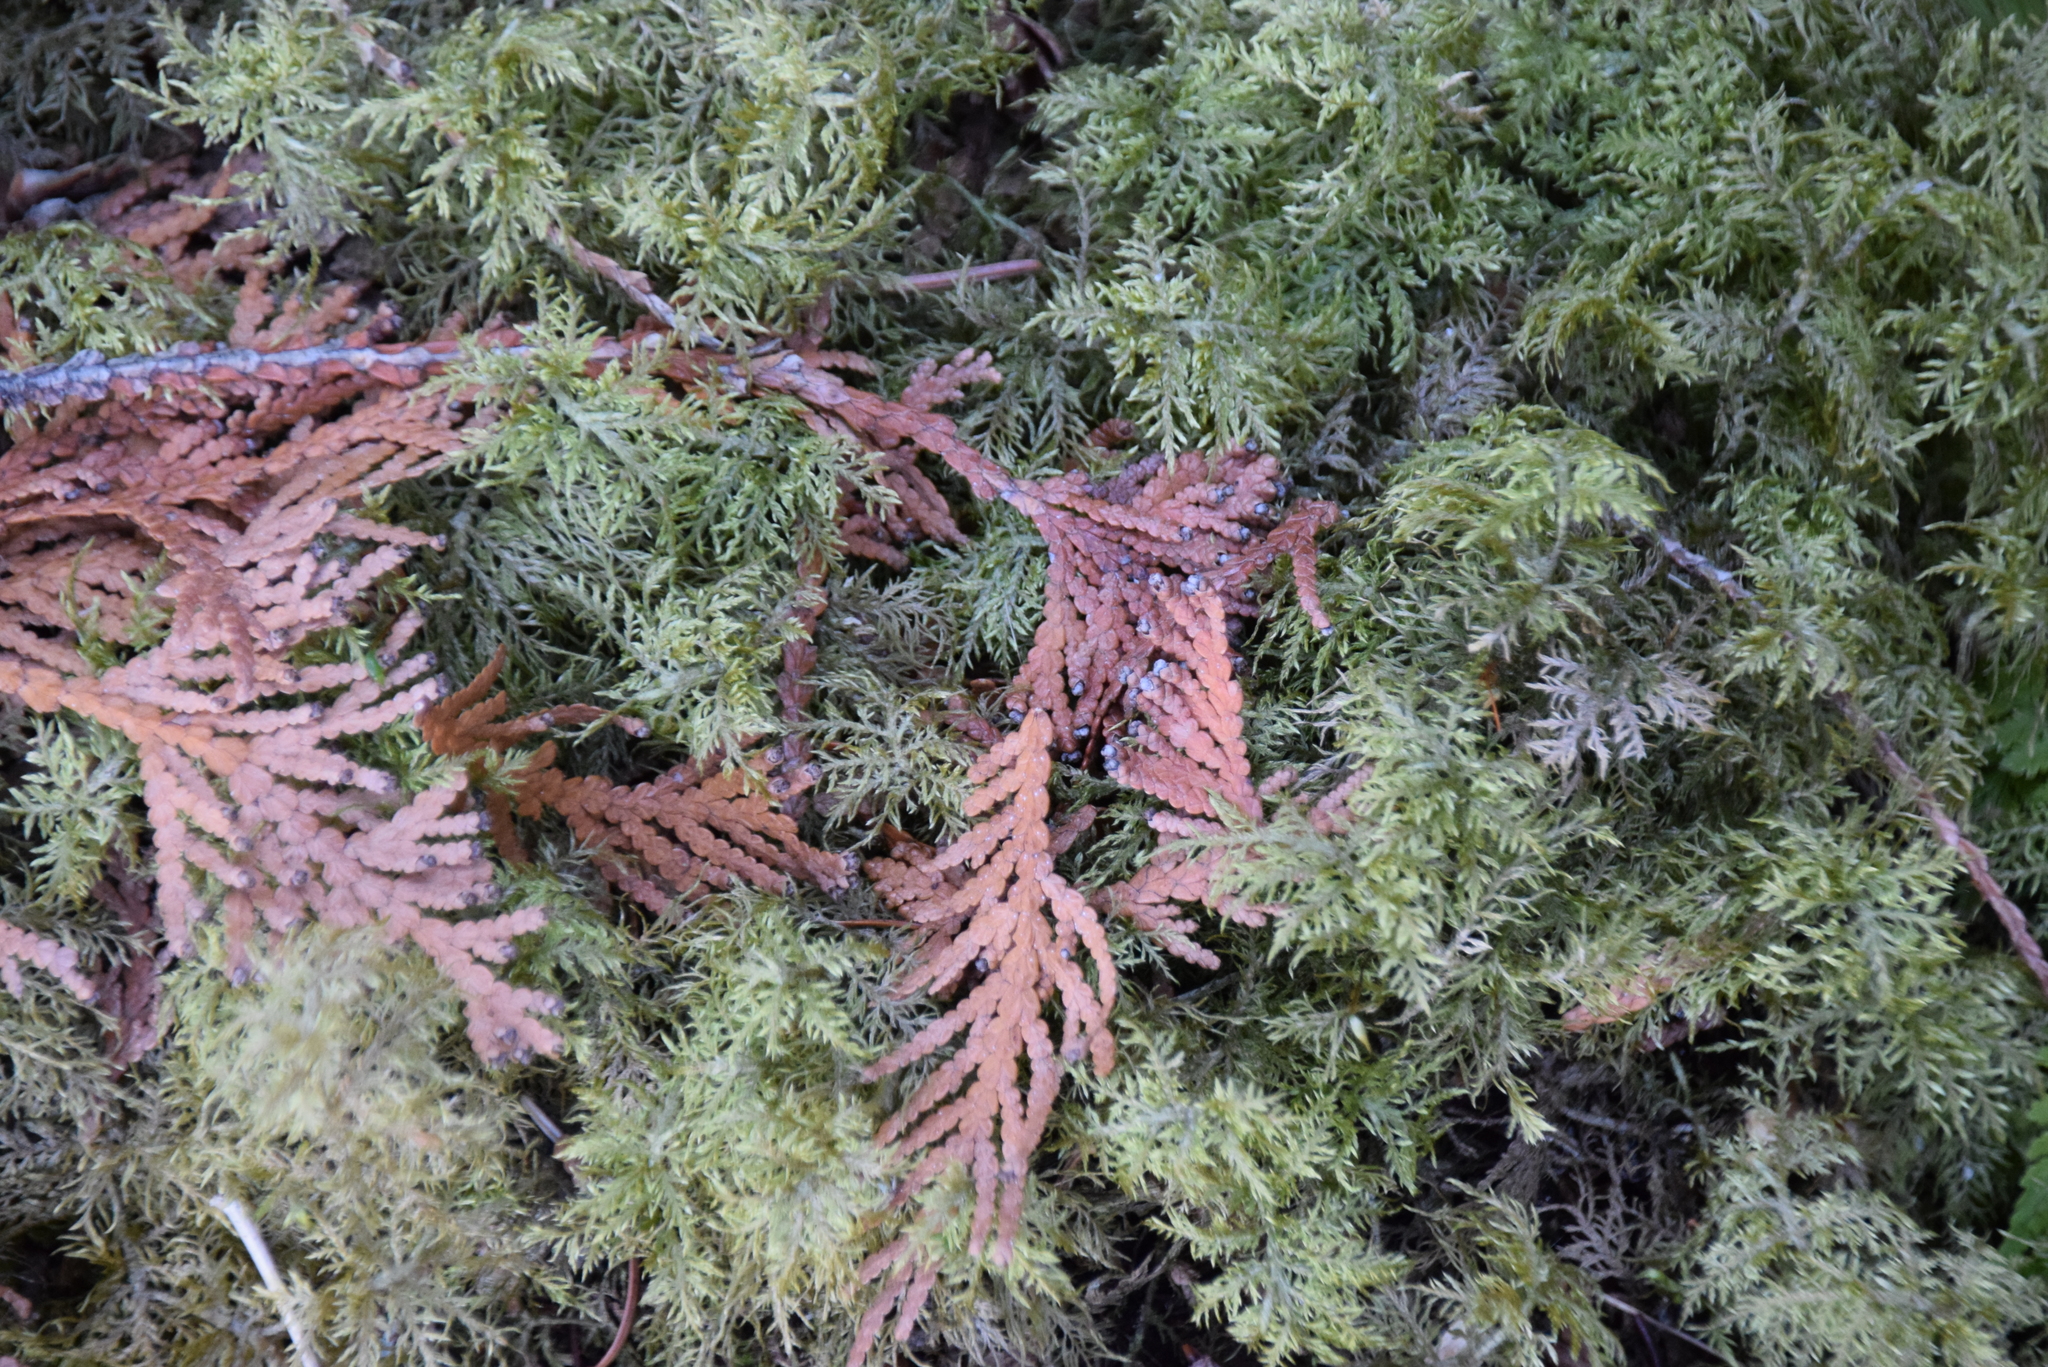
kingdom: Plantae
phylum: Bryophyta
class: Bryopsida
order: Hypnales
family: Hylocomiaceae
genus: Hylocomium
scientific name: Hylocomium splendens
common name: Stairstep moss
